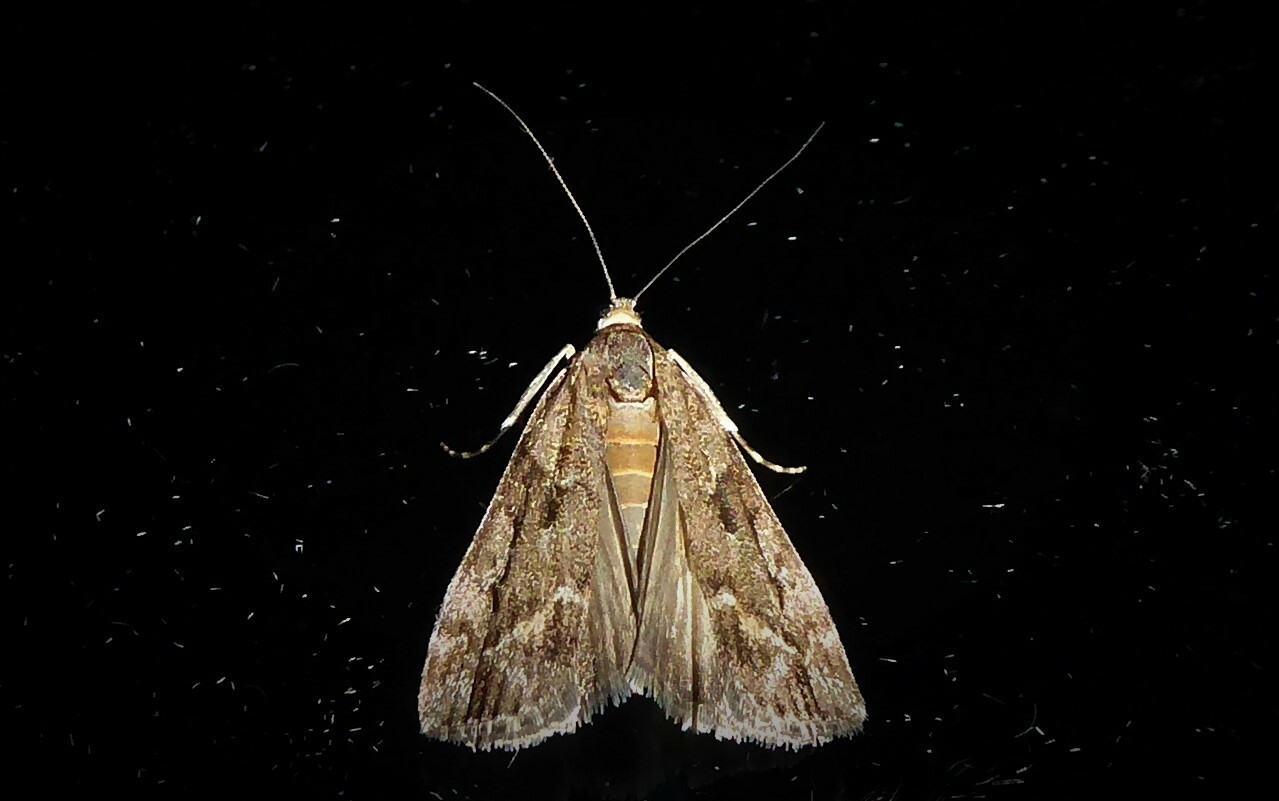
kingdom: Animalia
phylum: Arthropoda
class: Insecta
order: Lepidoptera
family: Crambidae
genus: Eudonia
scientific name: Eudonia submarginalis
